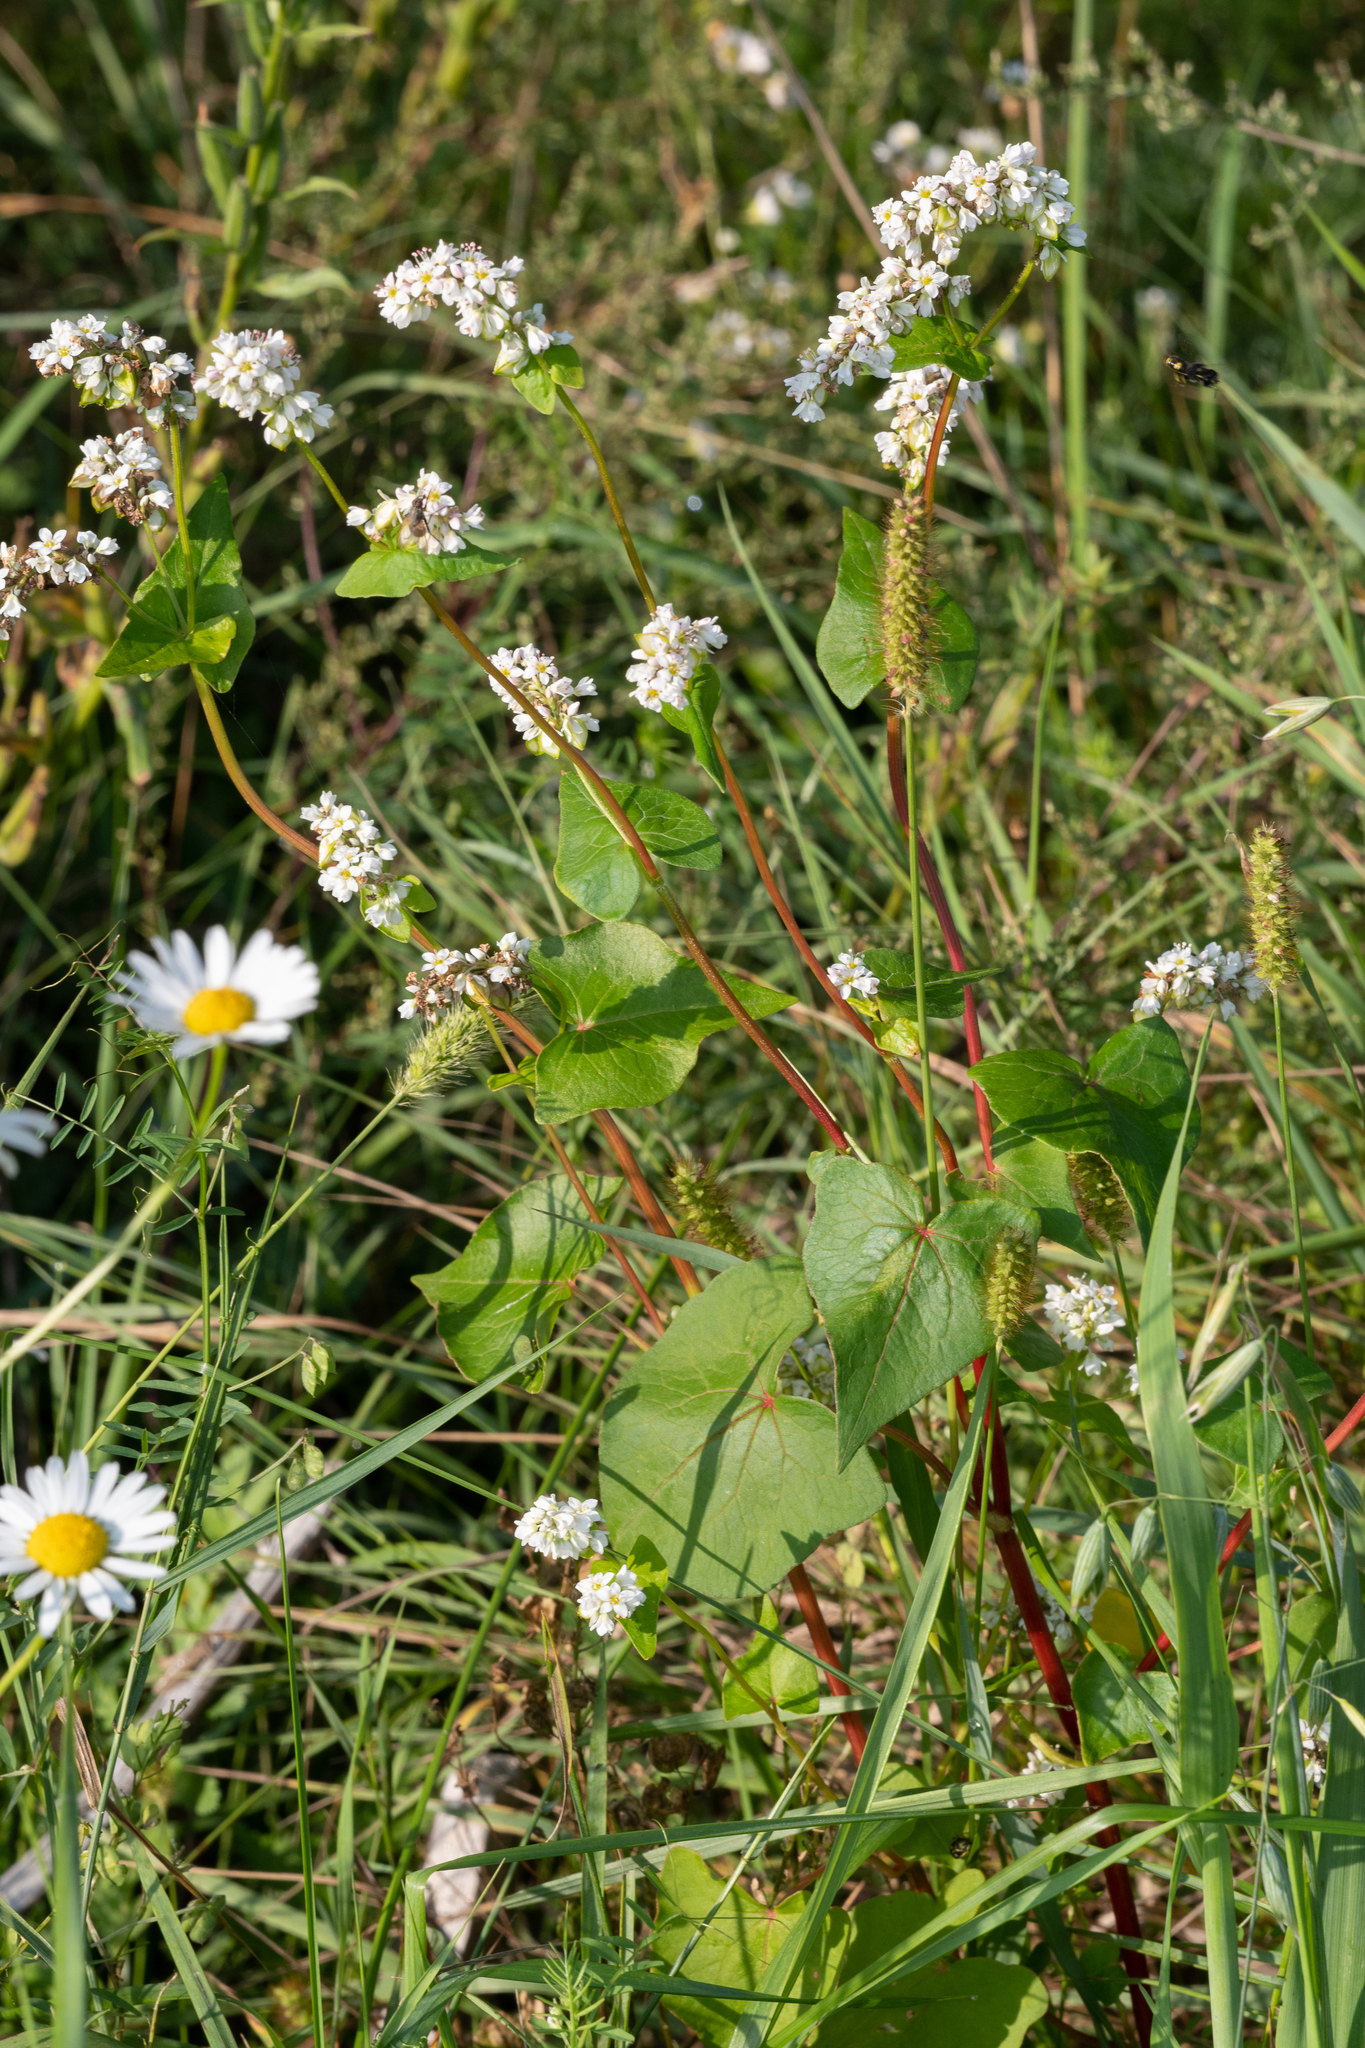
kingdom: Plantae
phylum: Tracheophyta
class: Magnoliopsida
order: Caryophyllales
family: Polygonaceae
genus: Fagopyrum
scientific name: Fagopyrum esculentum
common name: Buckwheat
